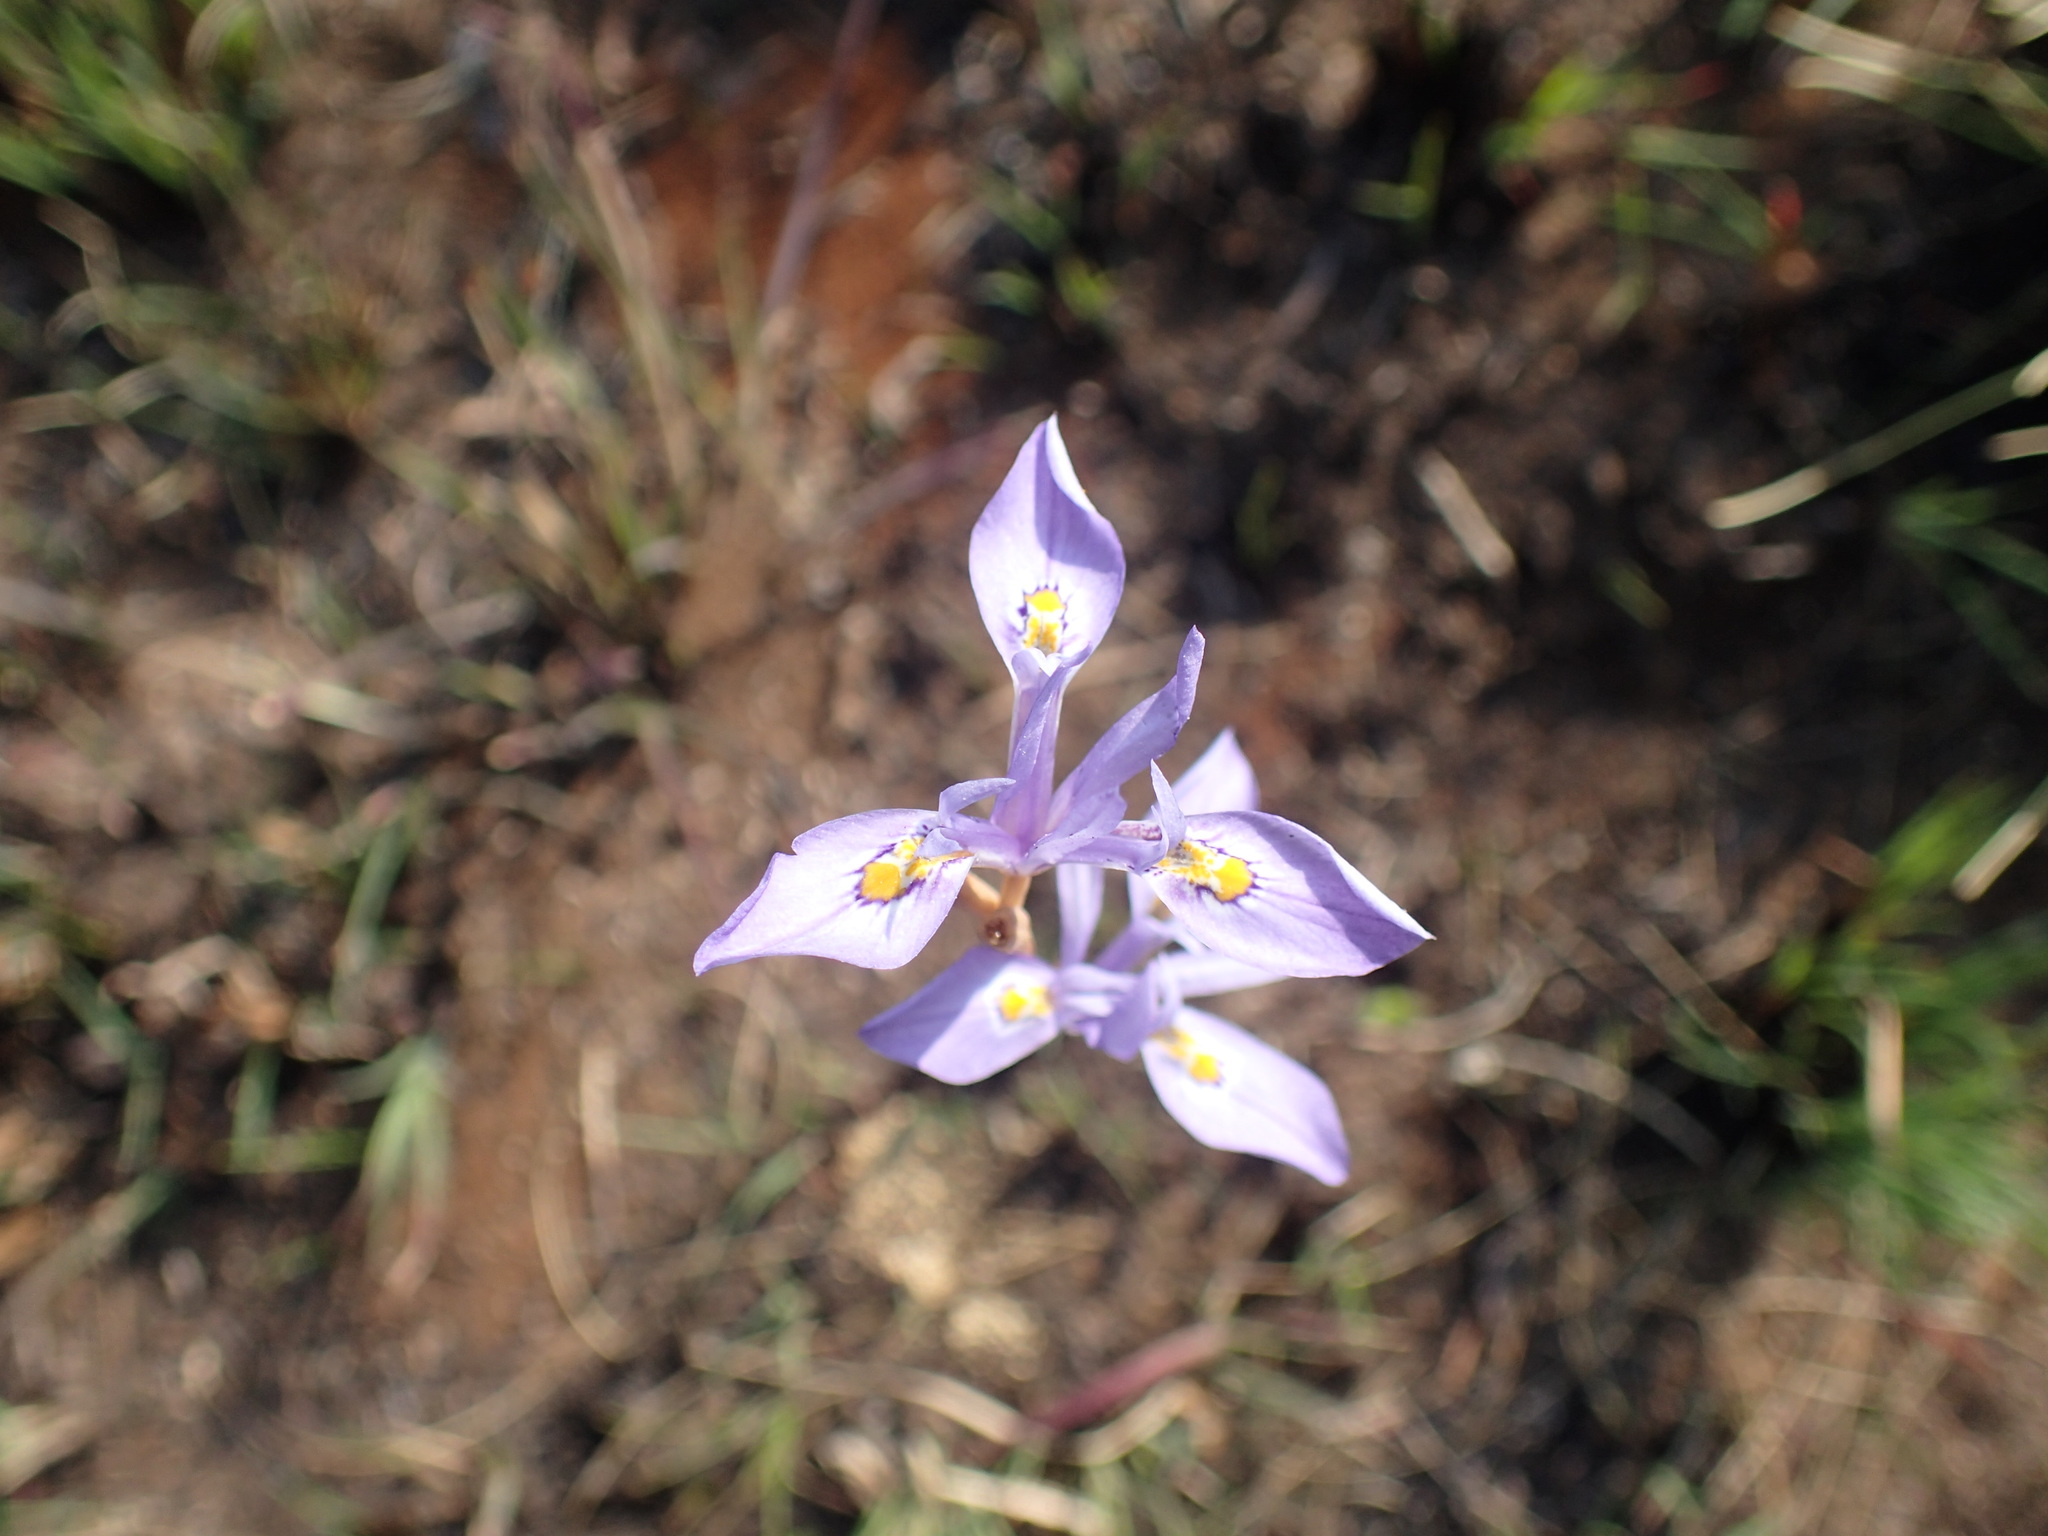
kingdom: Plantae
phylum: Tracheophyta
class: Liliopsida
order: Asparagales
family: Iridaceae
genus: Moraea
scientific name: Moraea stricta
